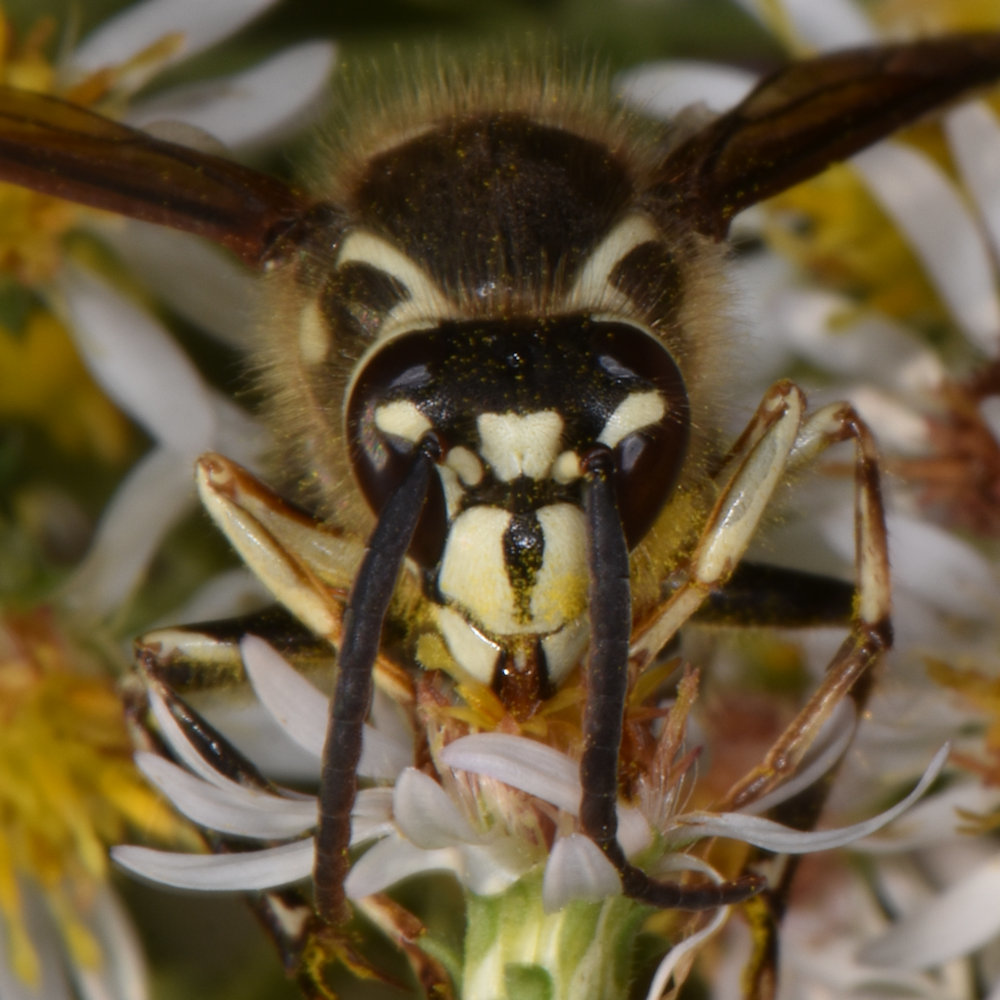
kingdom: Animalia
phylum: Arthropoda
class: Insecta
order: Hymenoptera
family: Vespidae
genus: Dolichovespula
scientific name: Dolichovespula maculata
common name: Bald-faced hornet
